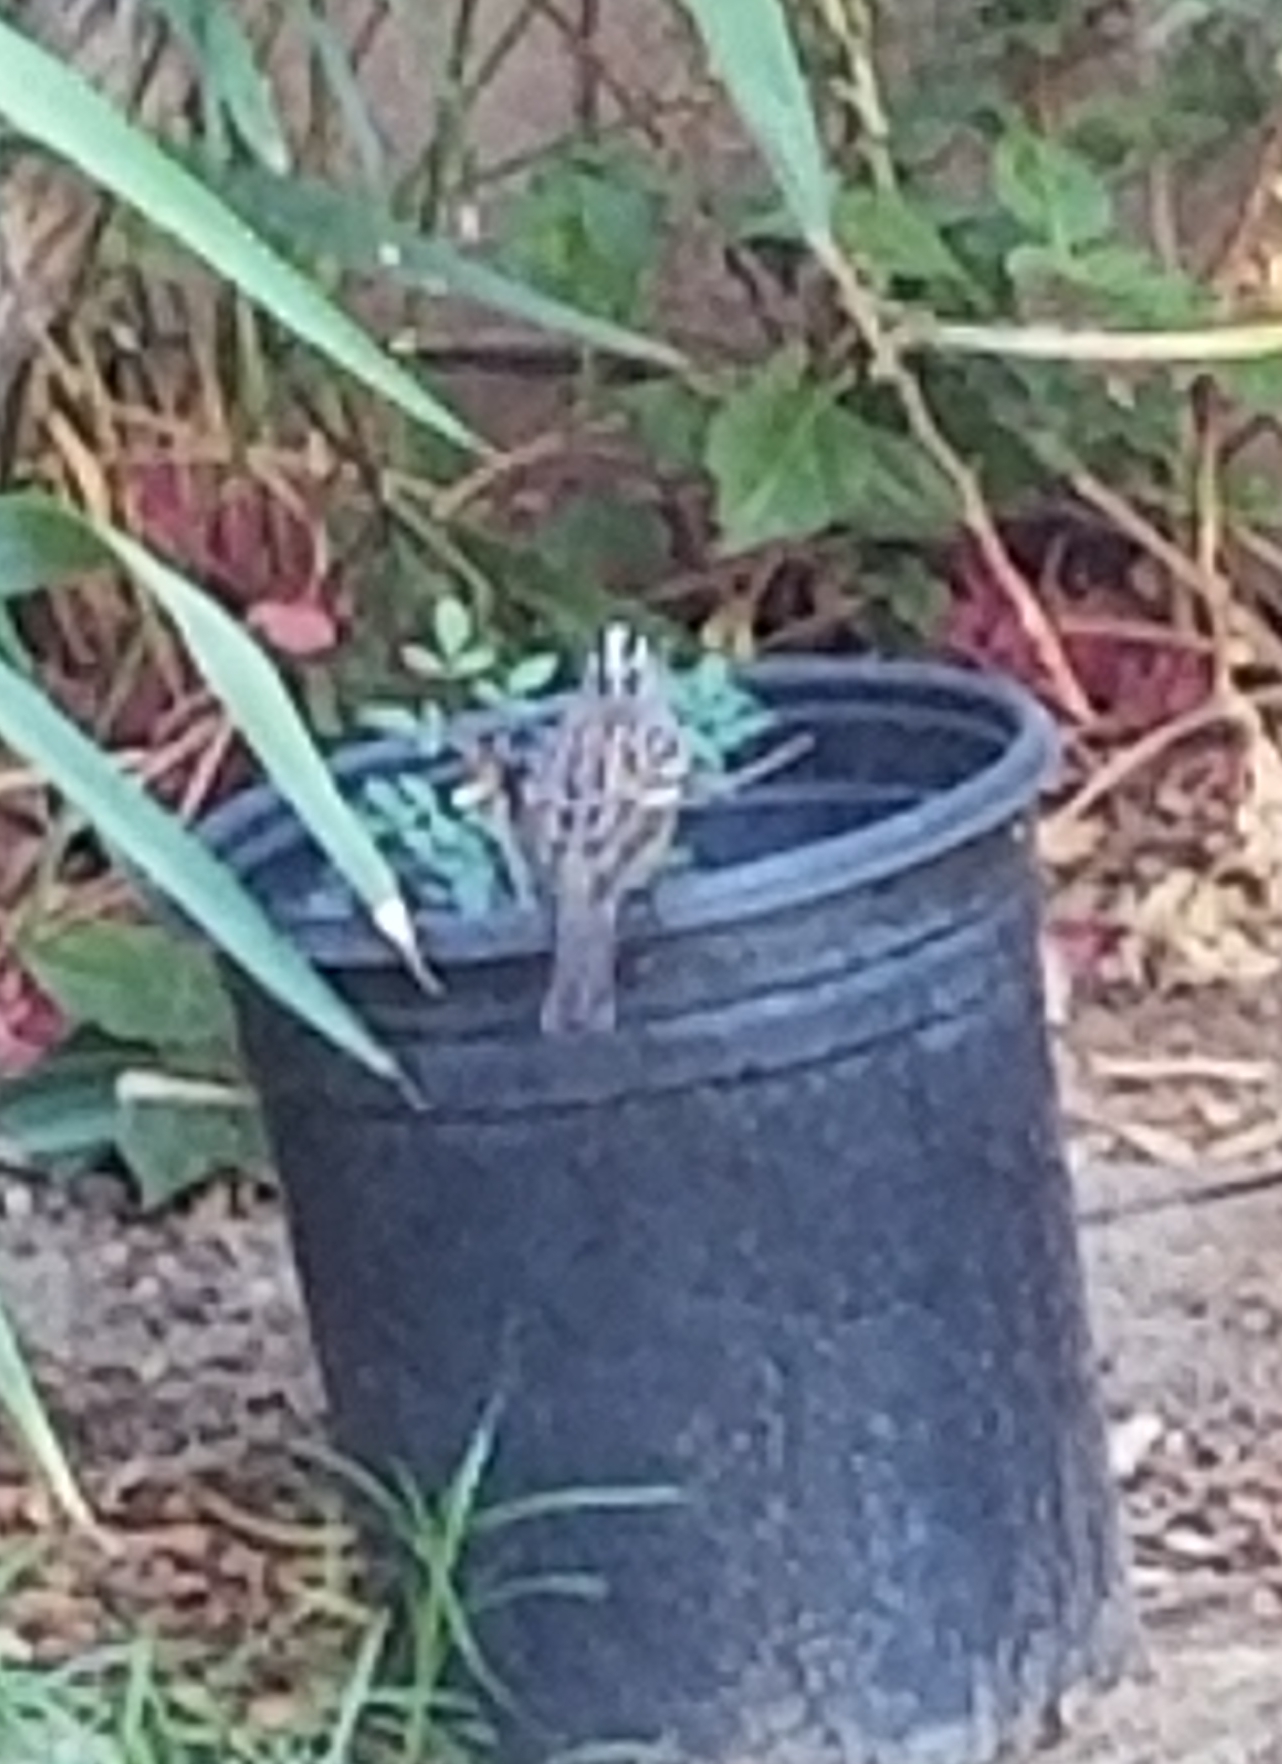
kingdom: Animalia
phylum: Chordata
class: Aves
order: Passeriformes
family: Passerellidae
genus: Zonotrichia
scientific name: Zonotrichia leucophrys
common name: White-crowned sparrow
